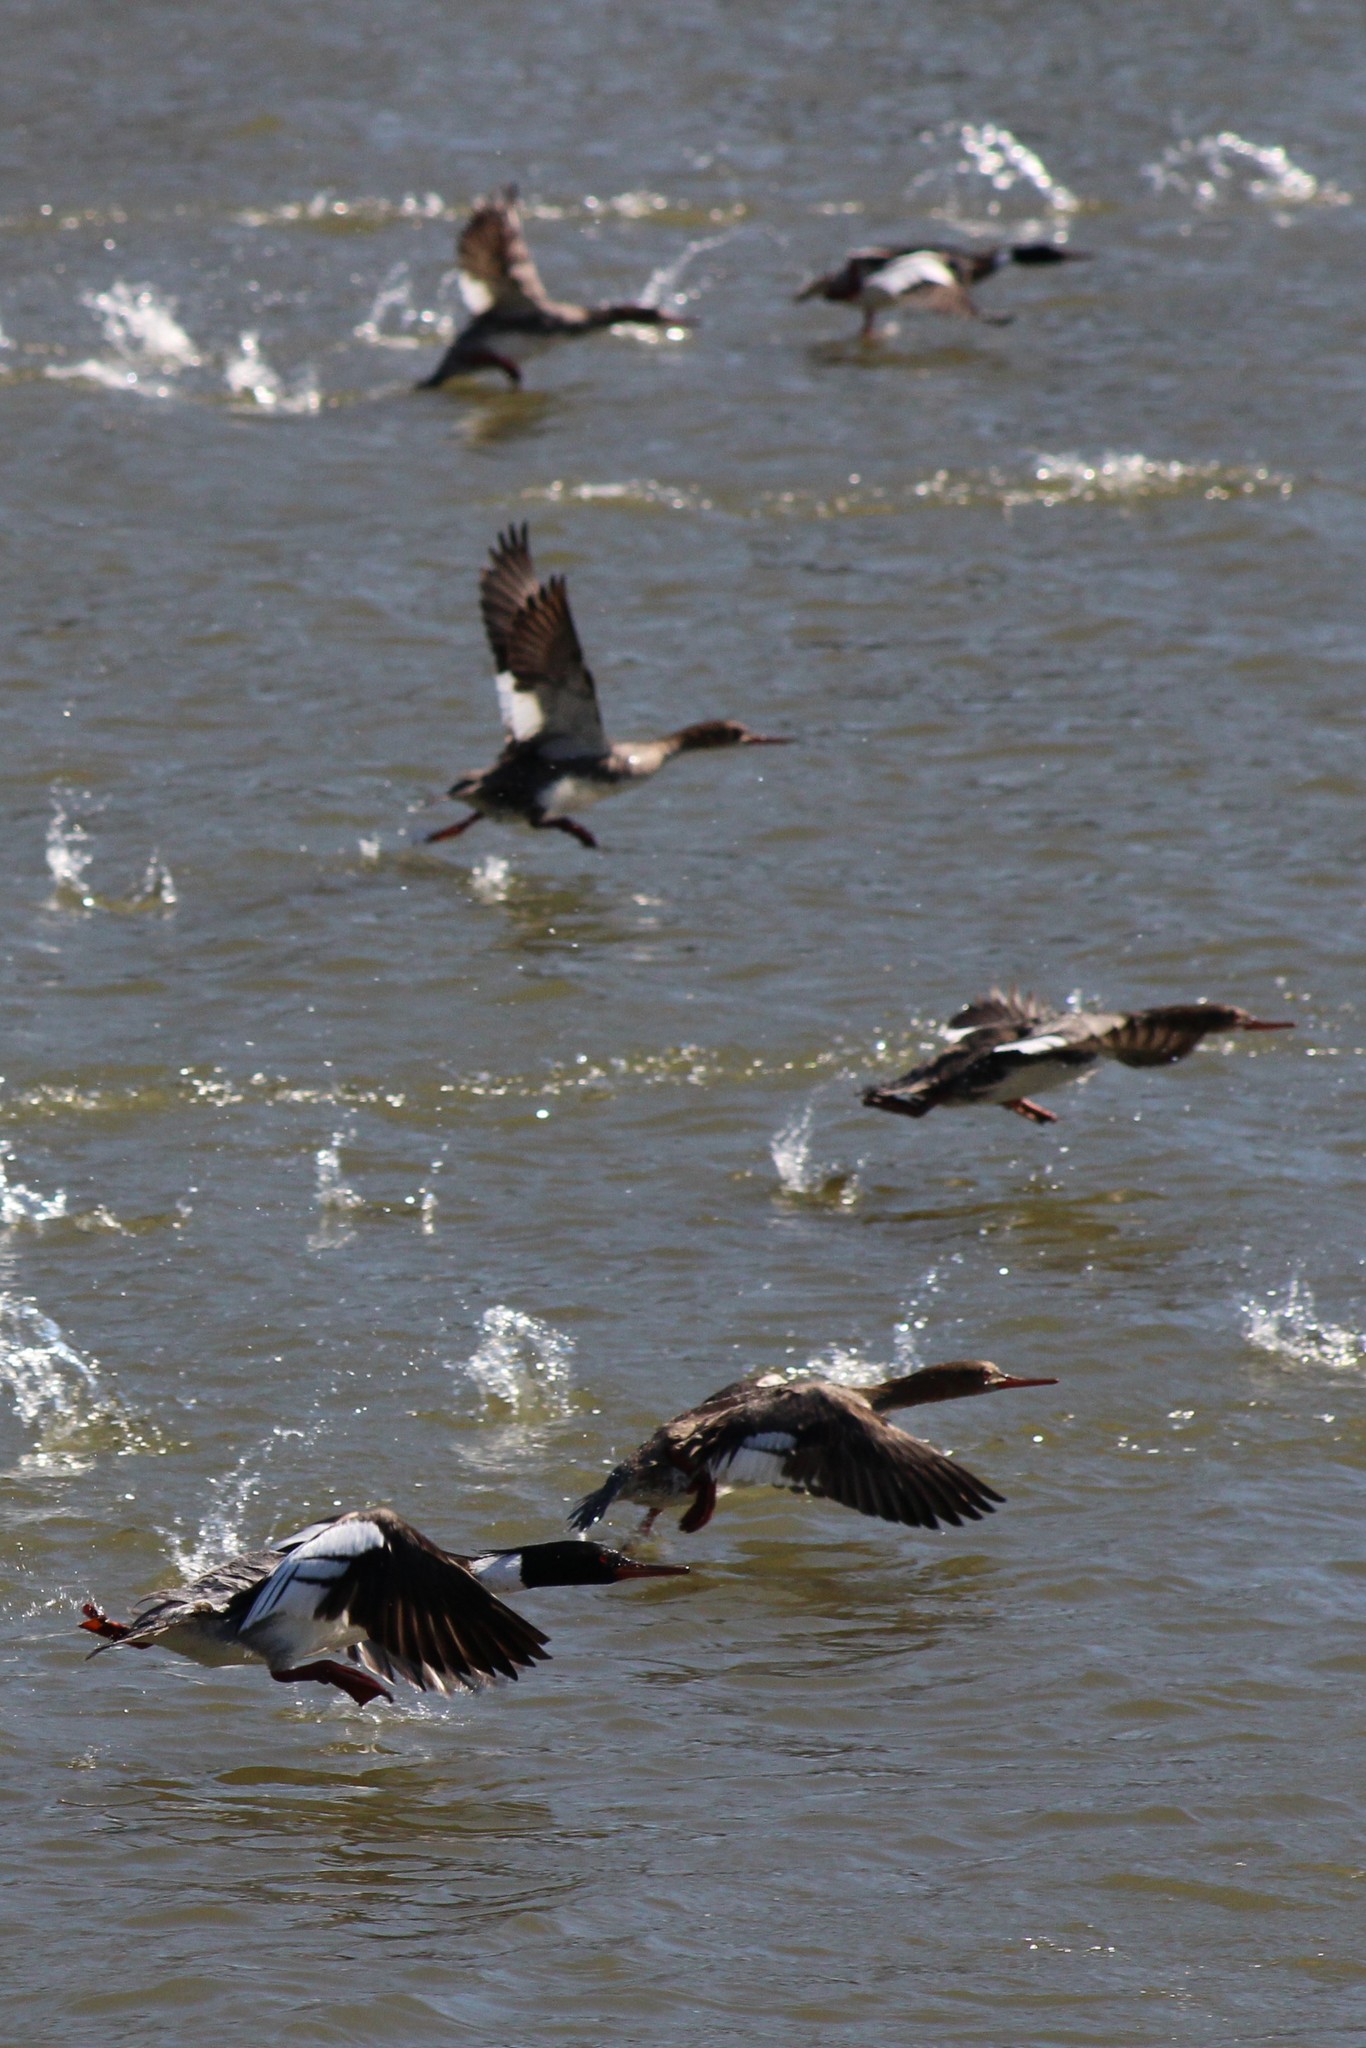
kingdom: Animalia
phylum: Chordata
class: Aves
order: Anseriformes
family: Anatidae
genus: Mergus
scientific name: Mergus serrator
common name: Red-breasted merganser
